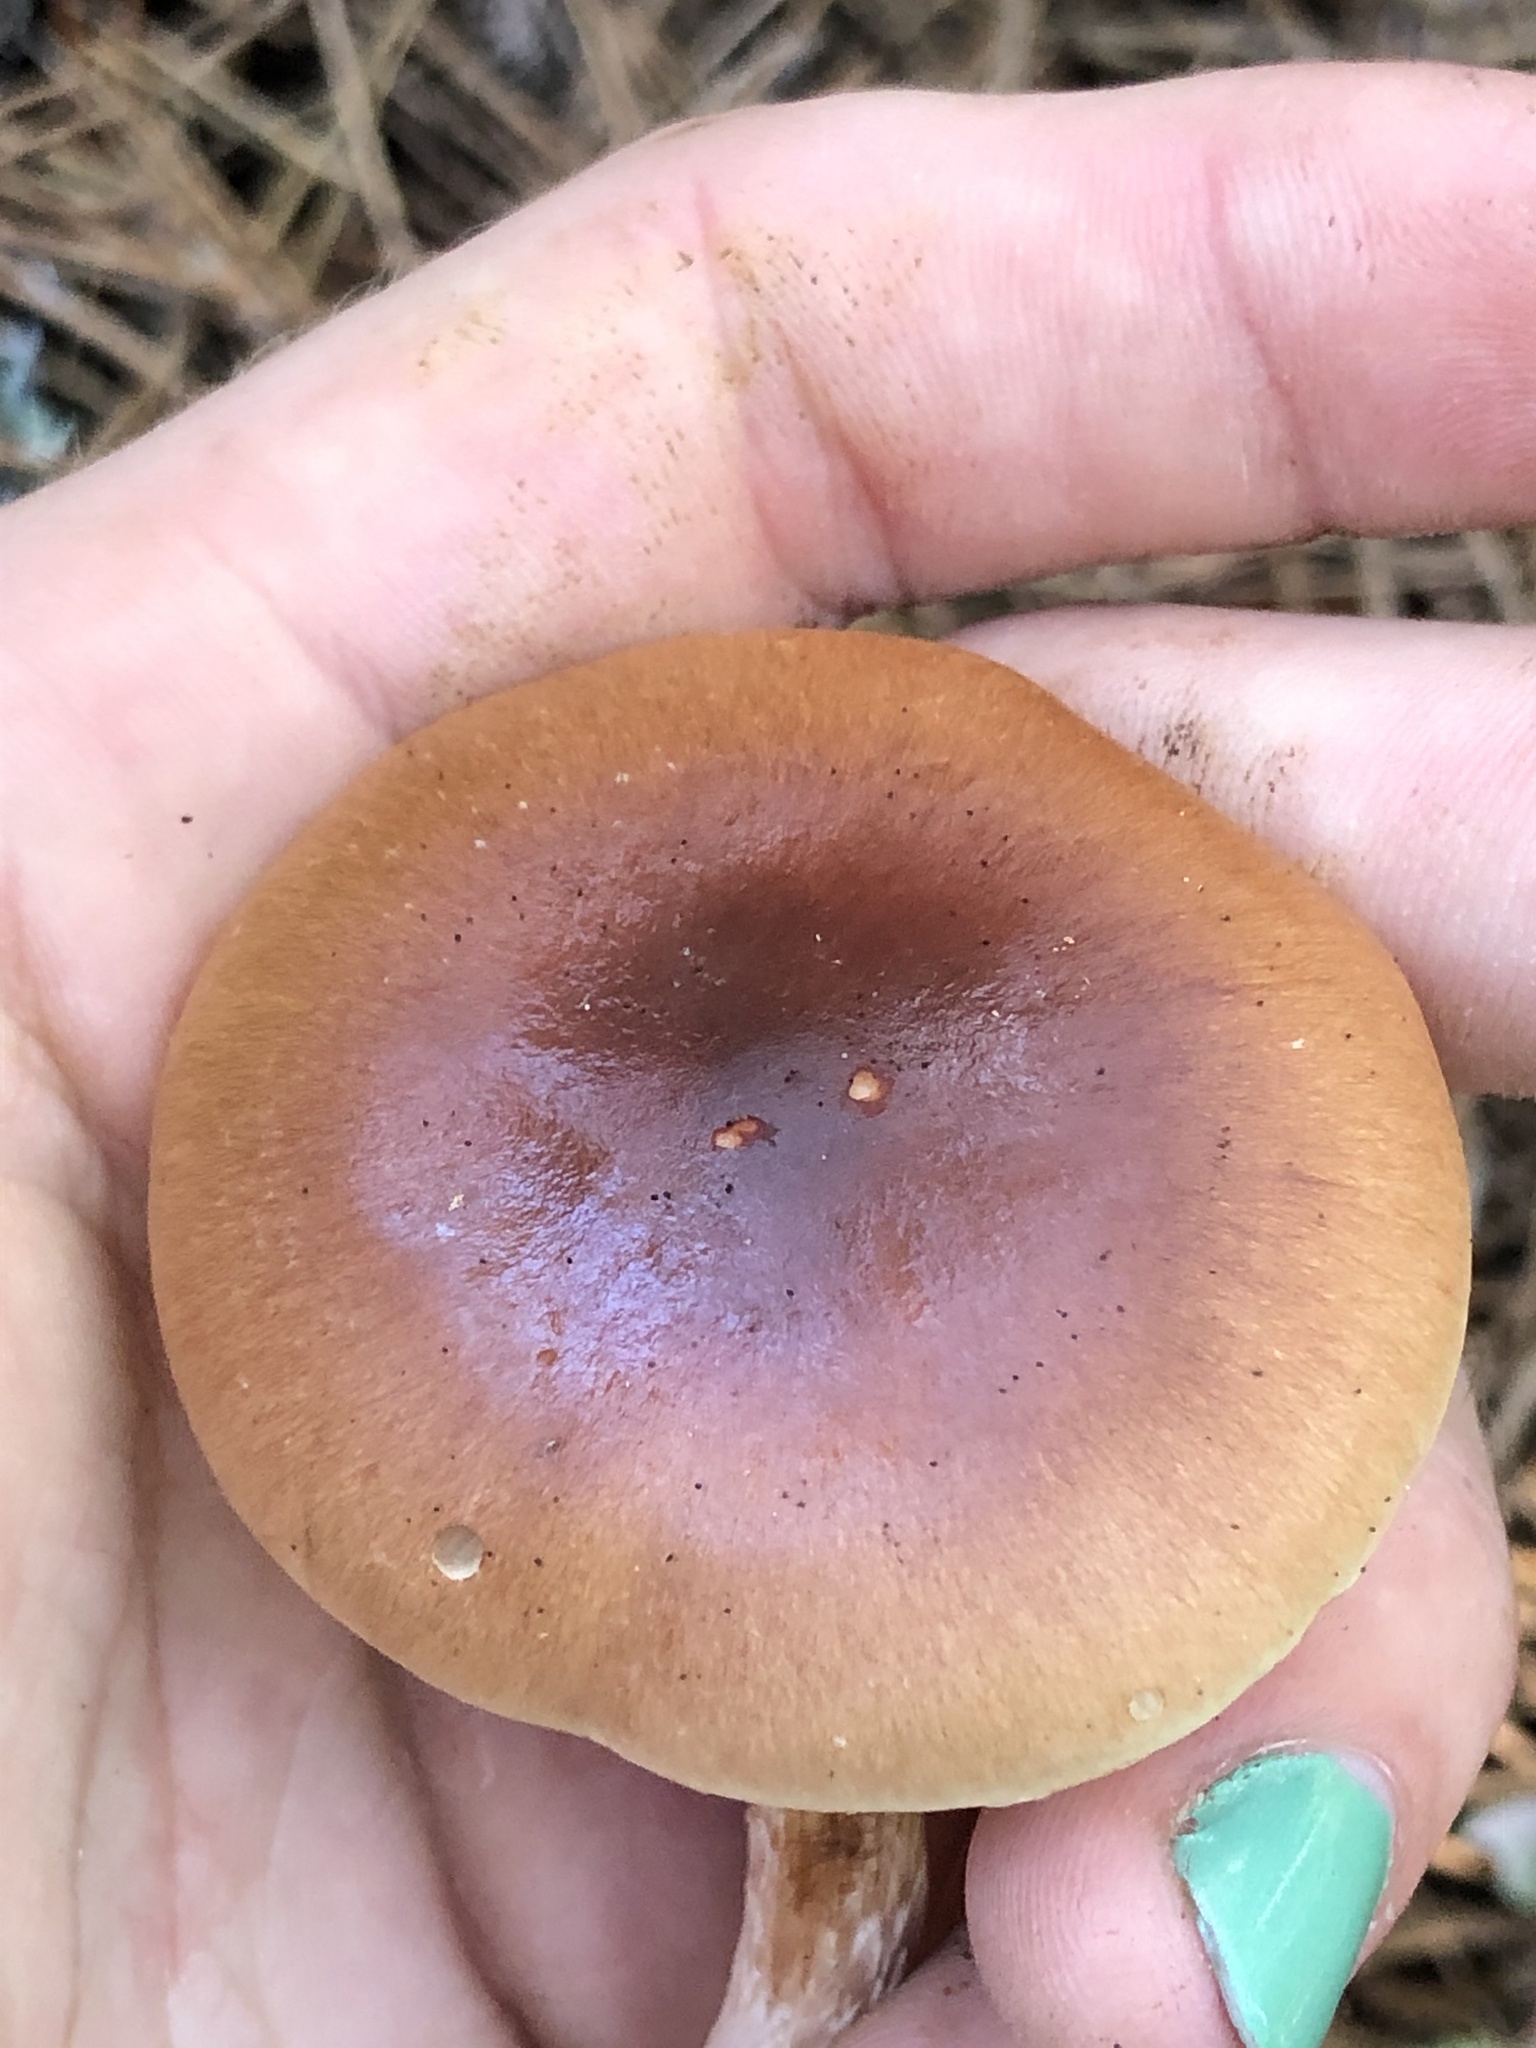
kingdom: Fungi
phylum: Basidiomycota
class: Agaricomycetes
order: Agaricales
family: Strophariaceae
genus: Pholiota
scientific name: Pholiota velaglutinosa
